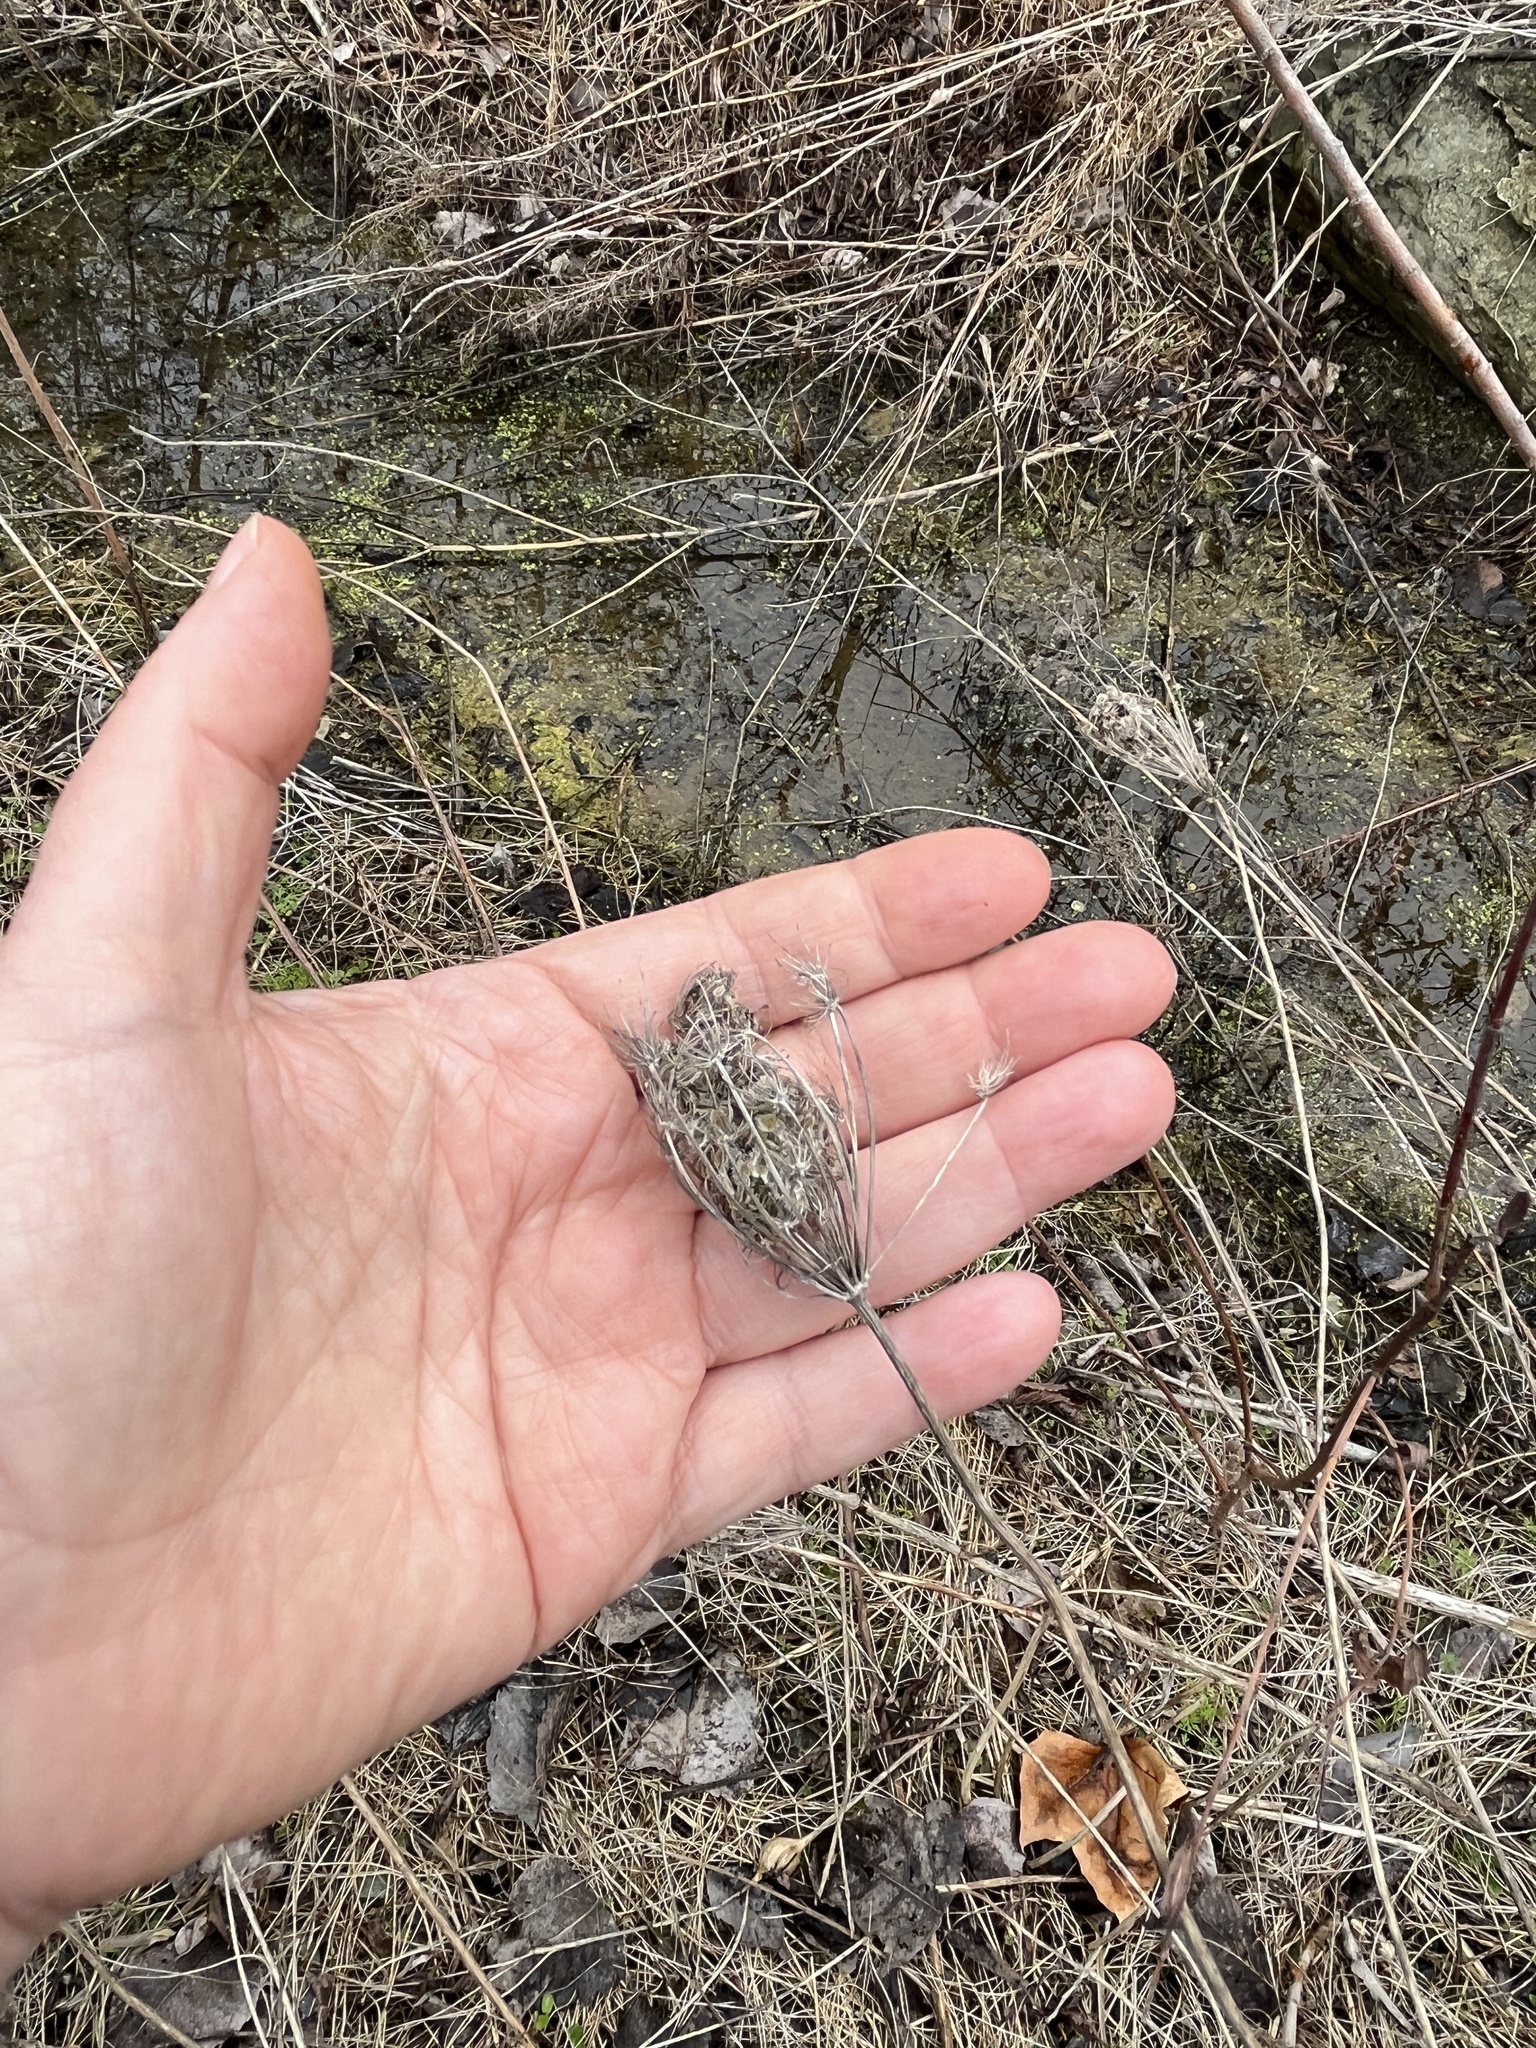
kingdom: Plantae
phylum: Tracheophyta
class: Magnoliopsida
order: Apiales
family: Apiaceae
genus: Daucus
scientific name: Daucus carota
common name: Wild carrot
